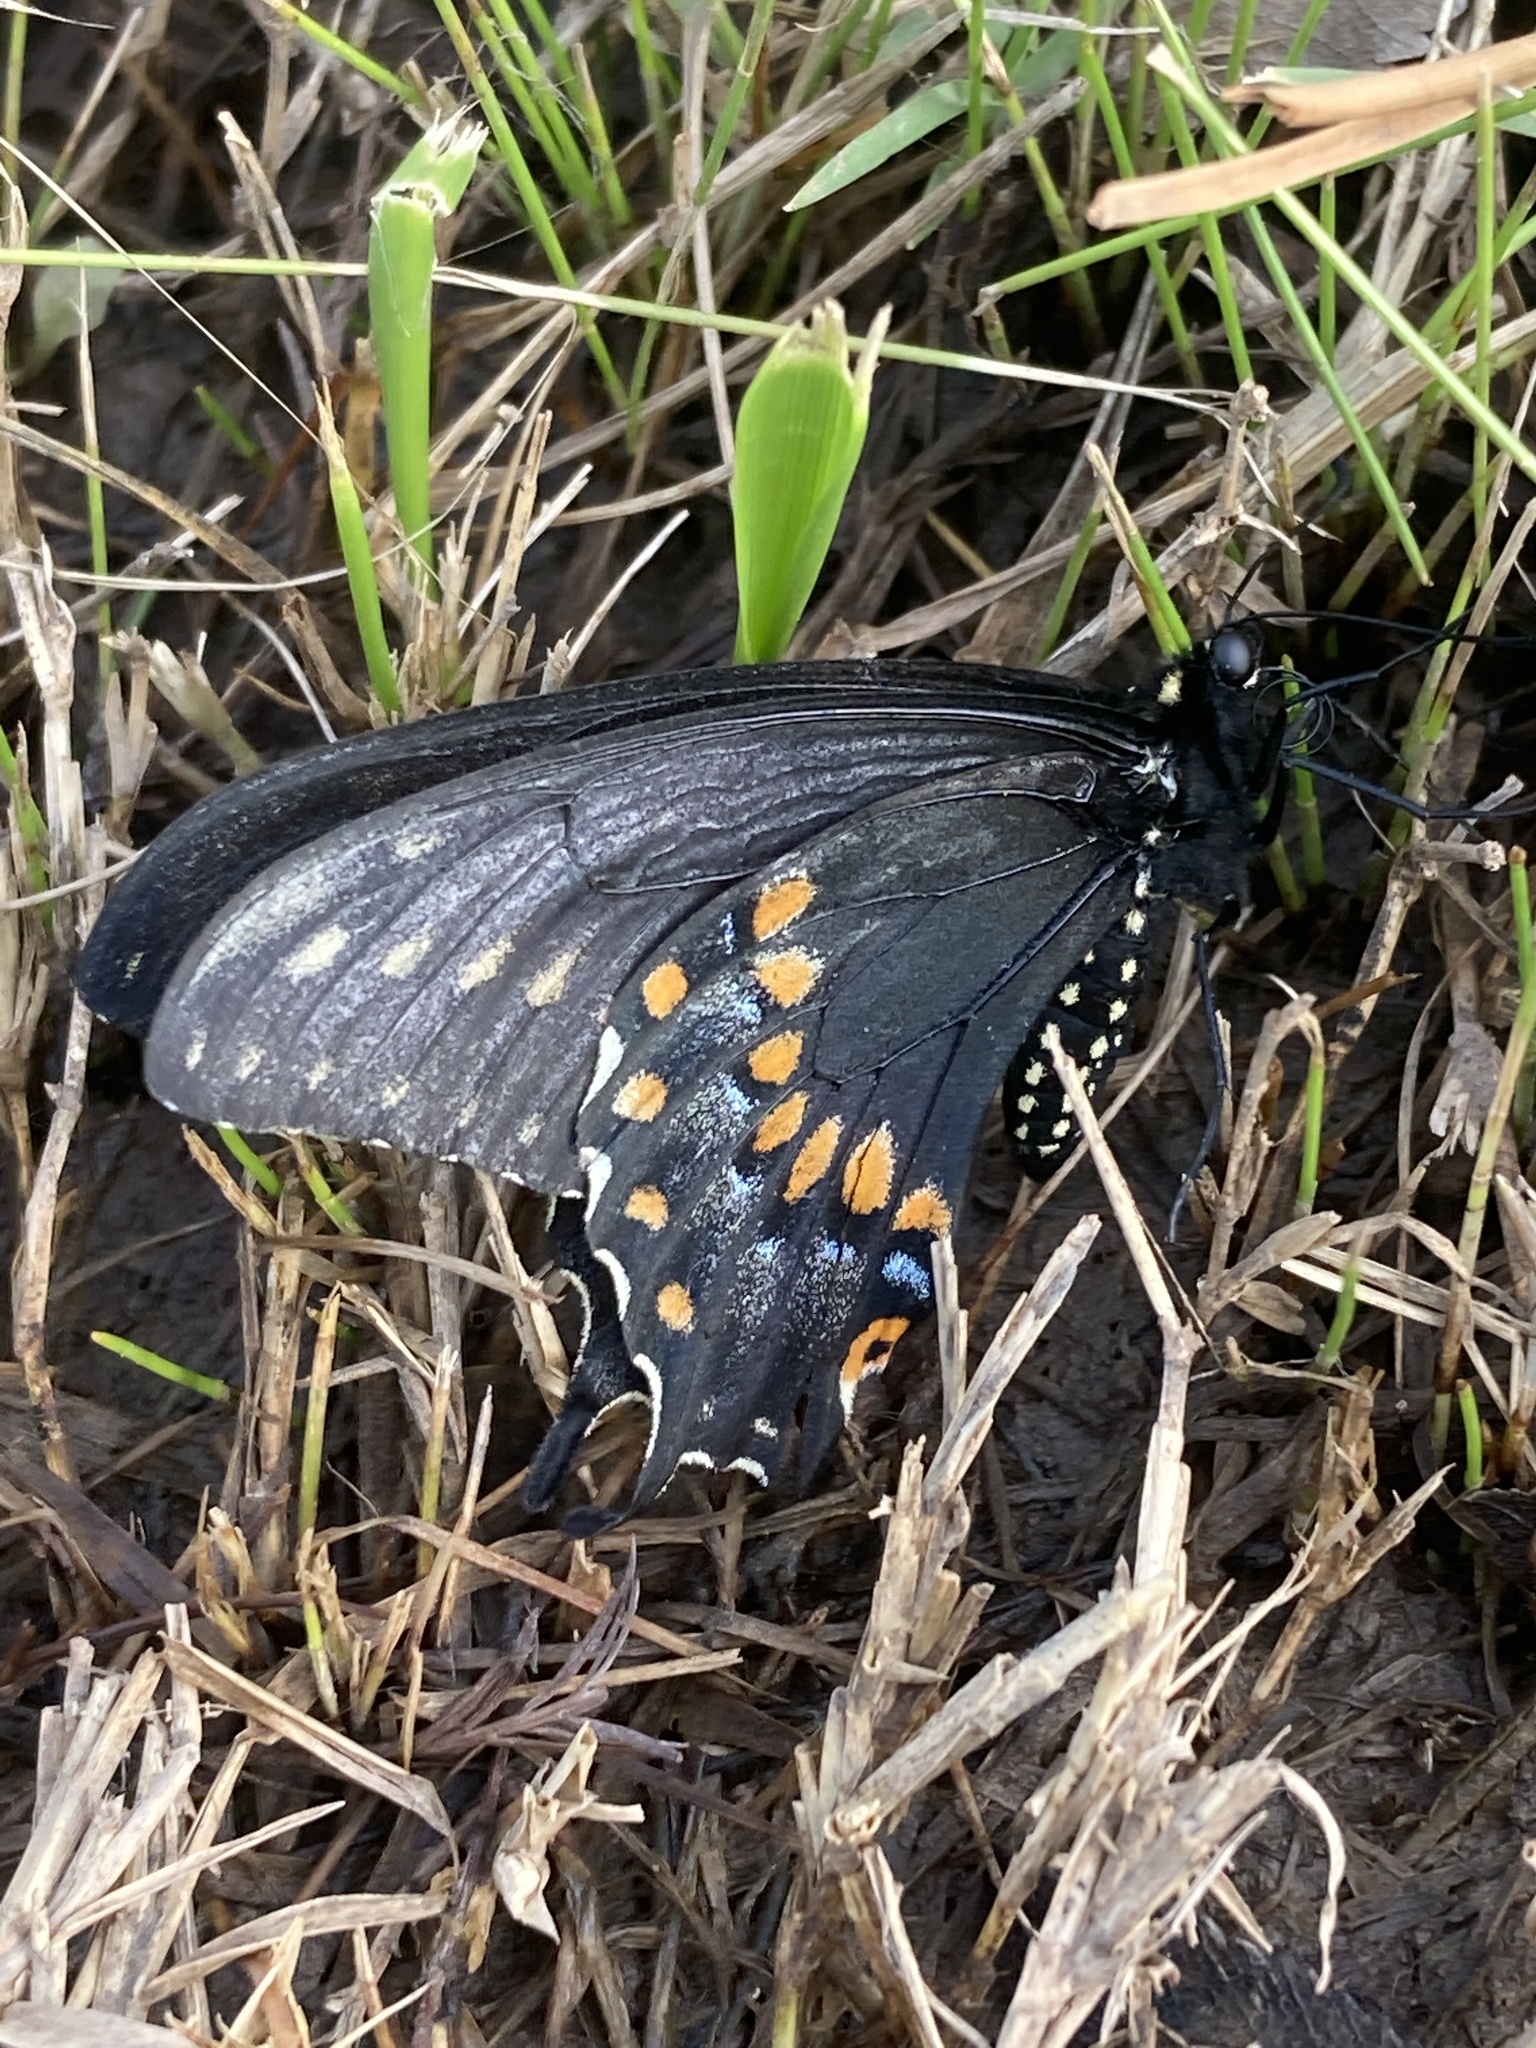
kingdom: Animalia
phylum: Arthropoda
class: Insecta
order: Lepidoptera
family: Papilionidae
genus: Papilio
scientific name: Papilio polyxenes
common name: Black swallowtail
